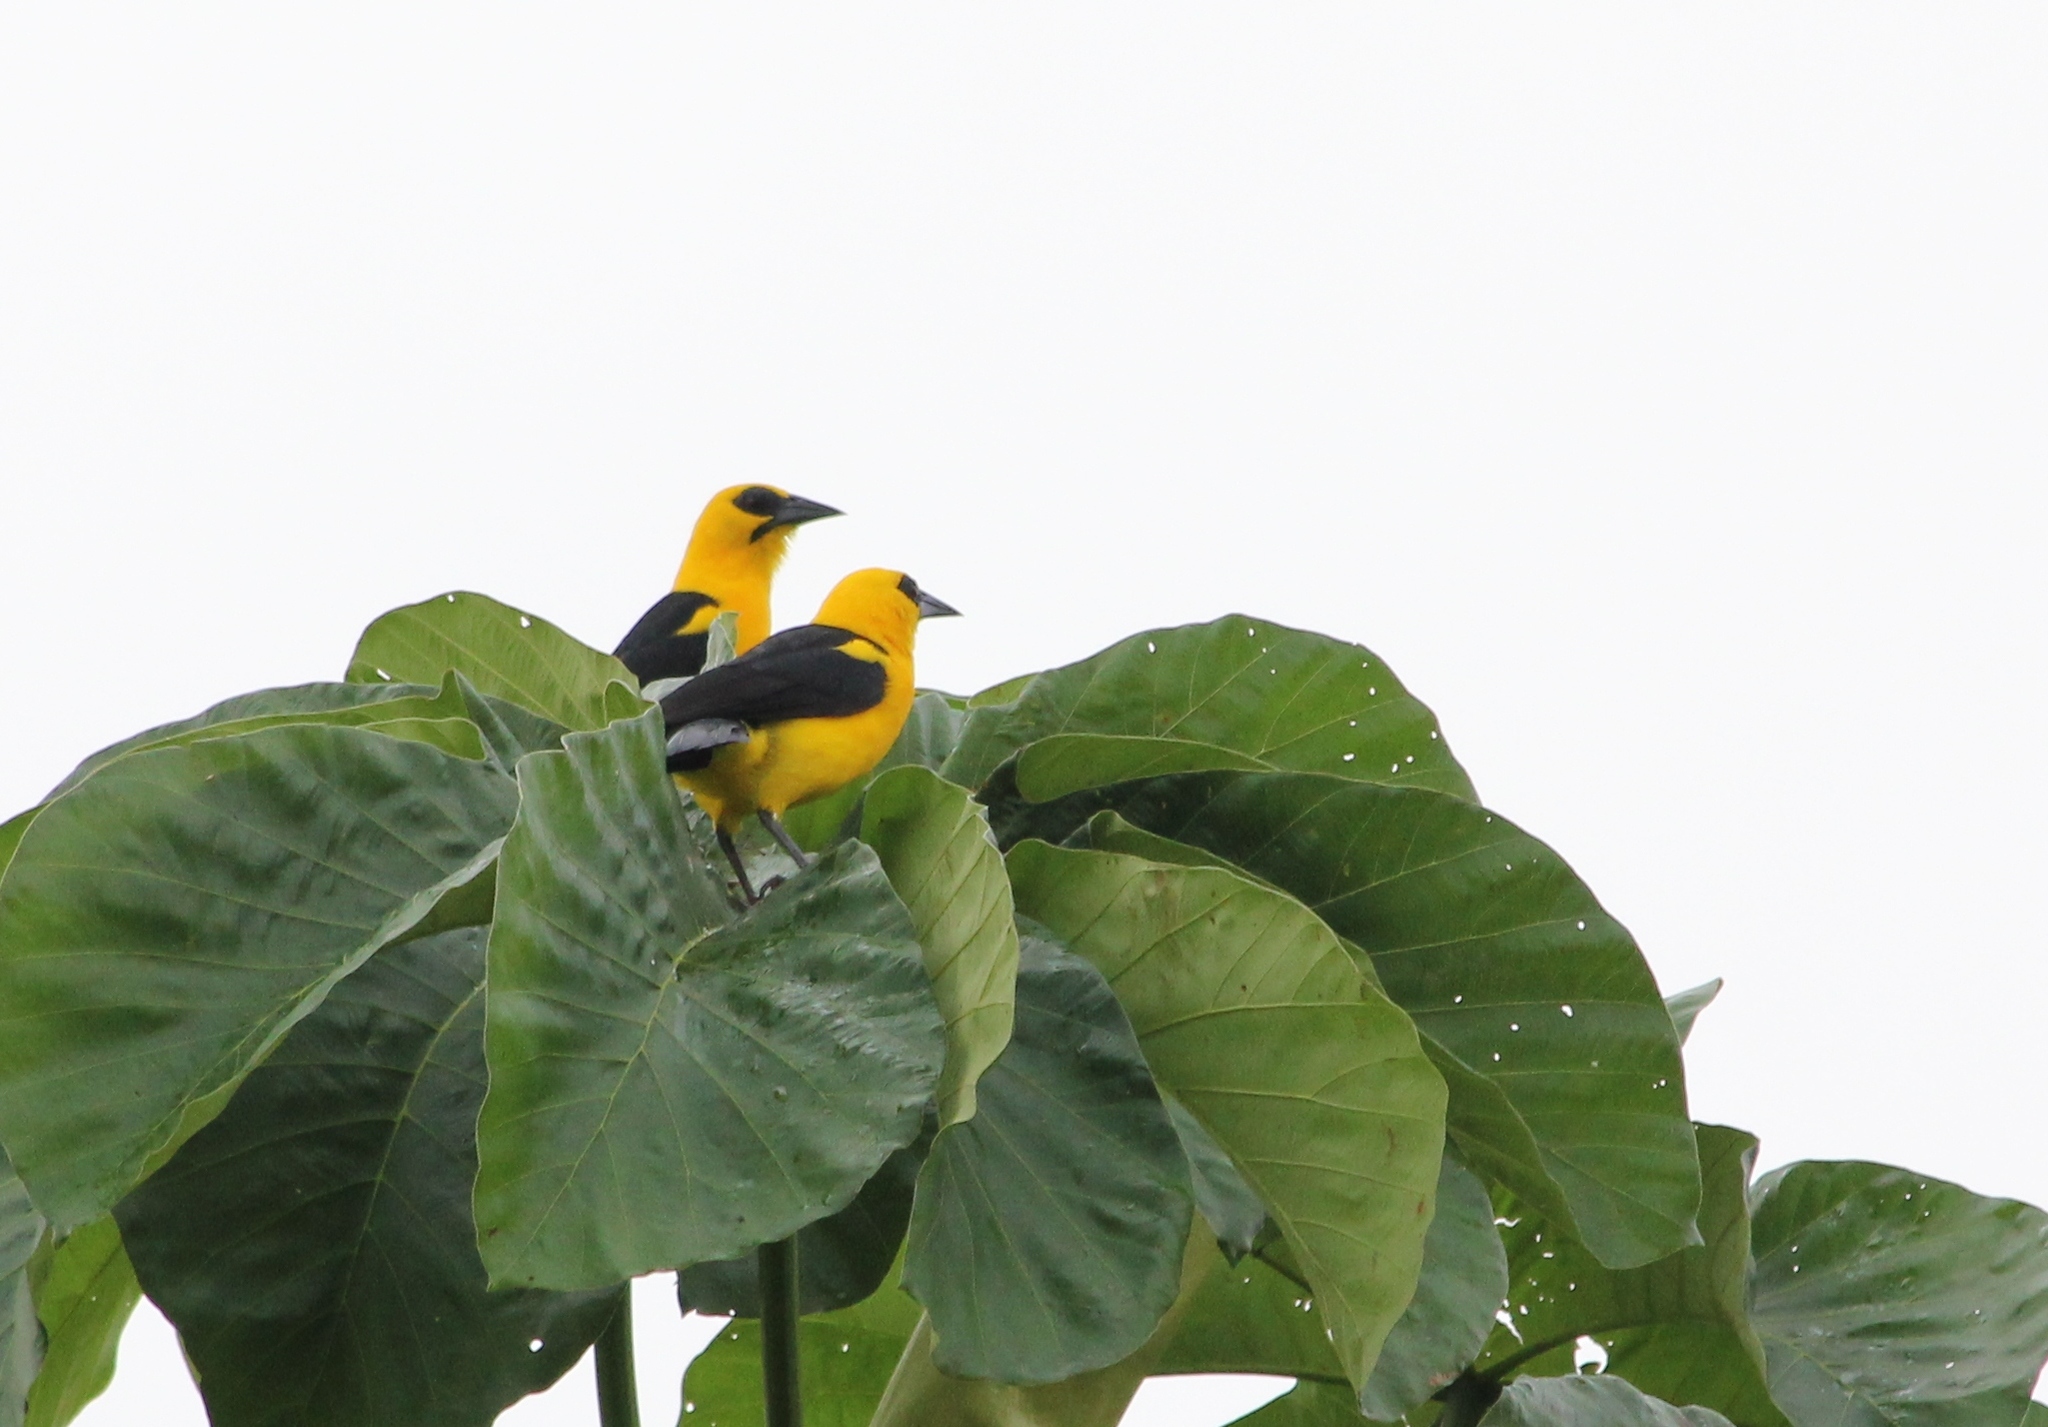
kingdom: Animalia
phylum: Chordata
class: Aves
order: Passeriformes
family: Icteridae
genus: Gymnomystax
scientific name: Gymnomystax mexicanus
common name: Oriole blackbird
